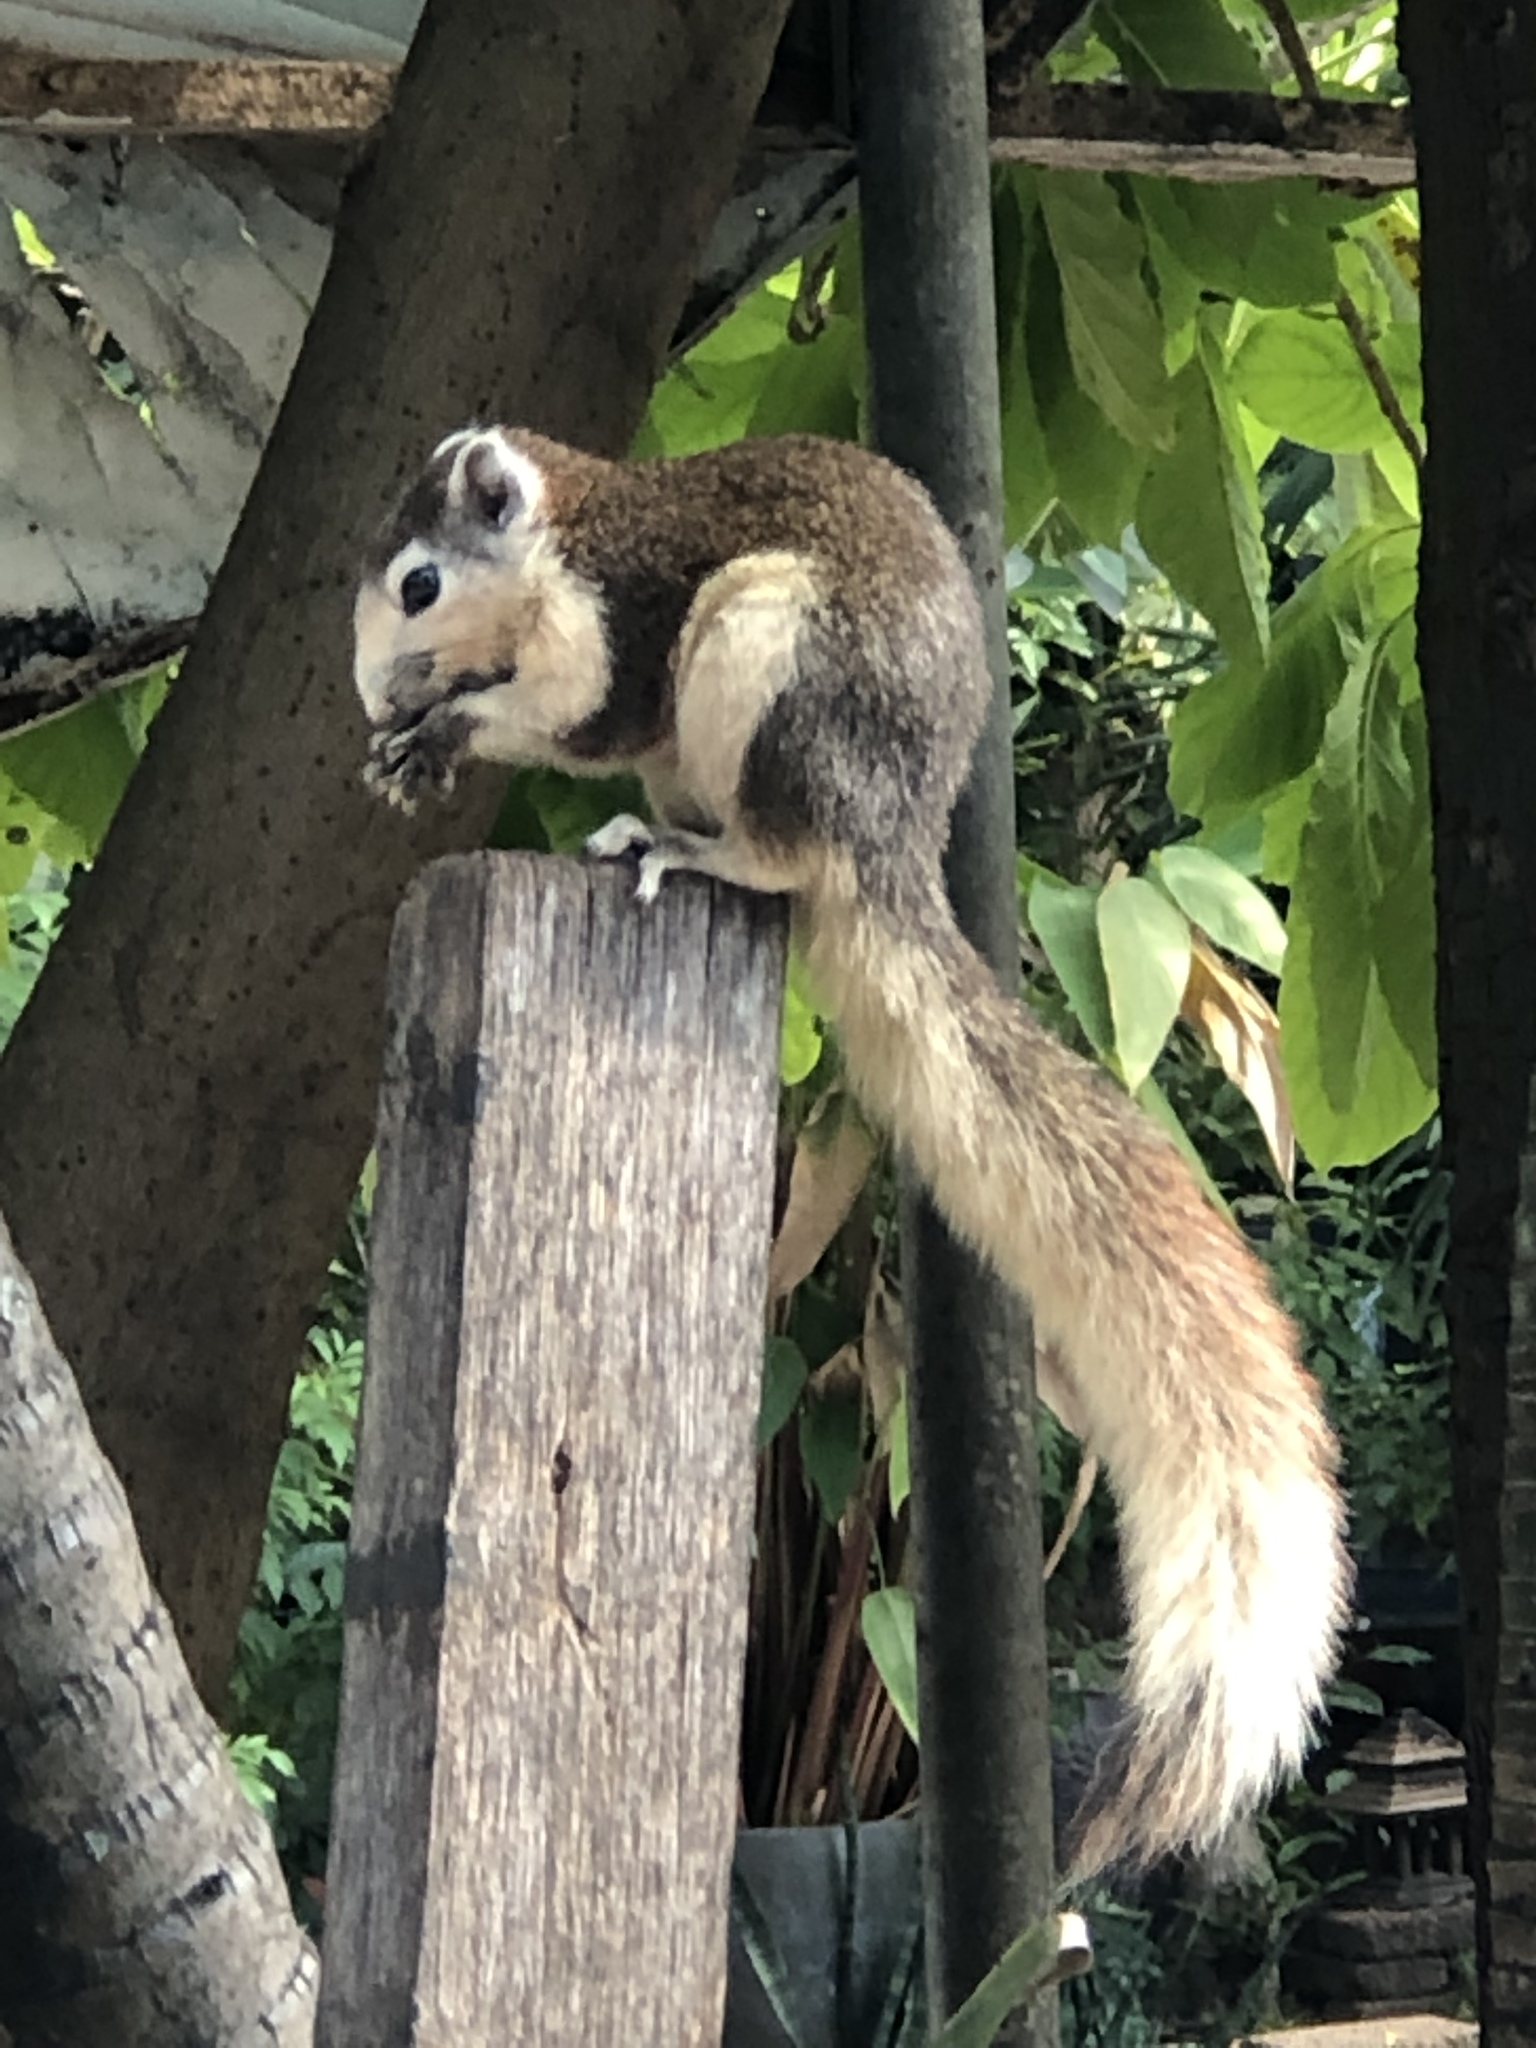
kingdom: Animalia
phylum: Chordata
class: Mammalia
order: Rodentia
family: Sciuridae
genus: Callosciurus
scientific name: Callosciurus finlaysonii
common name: Finlayson's squirrel
